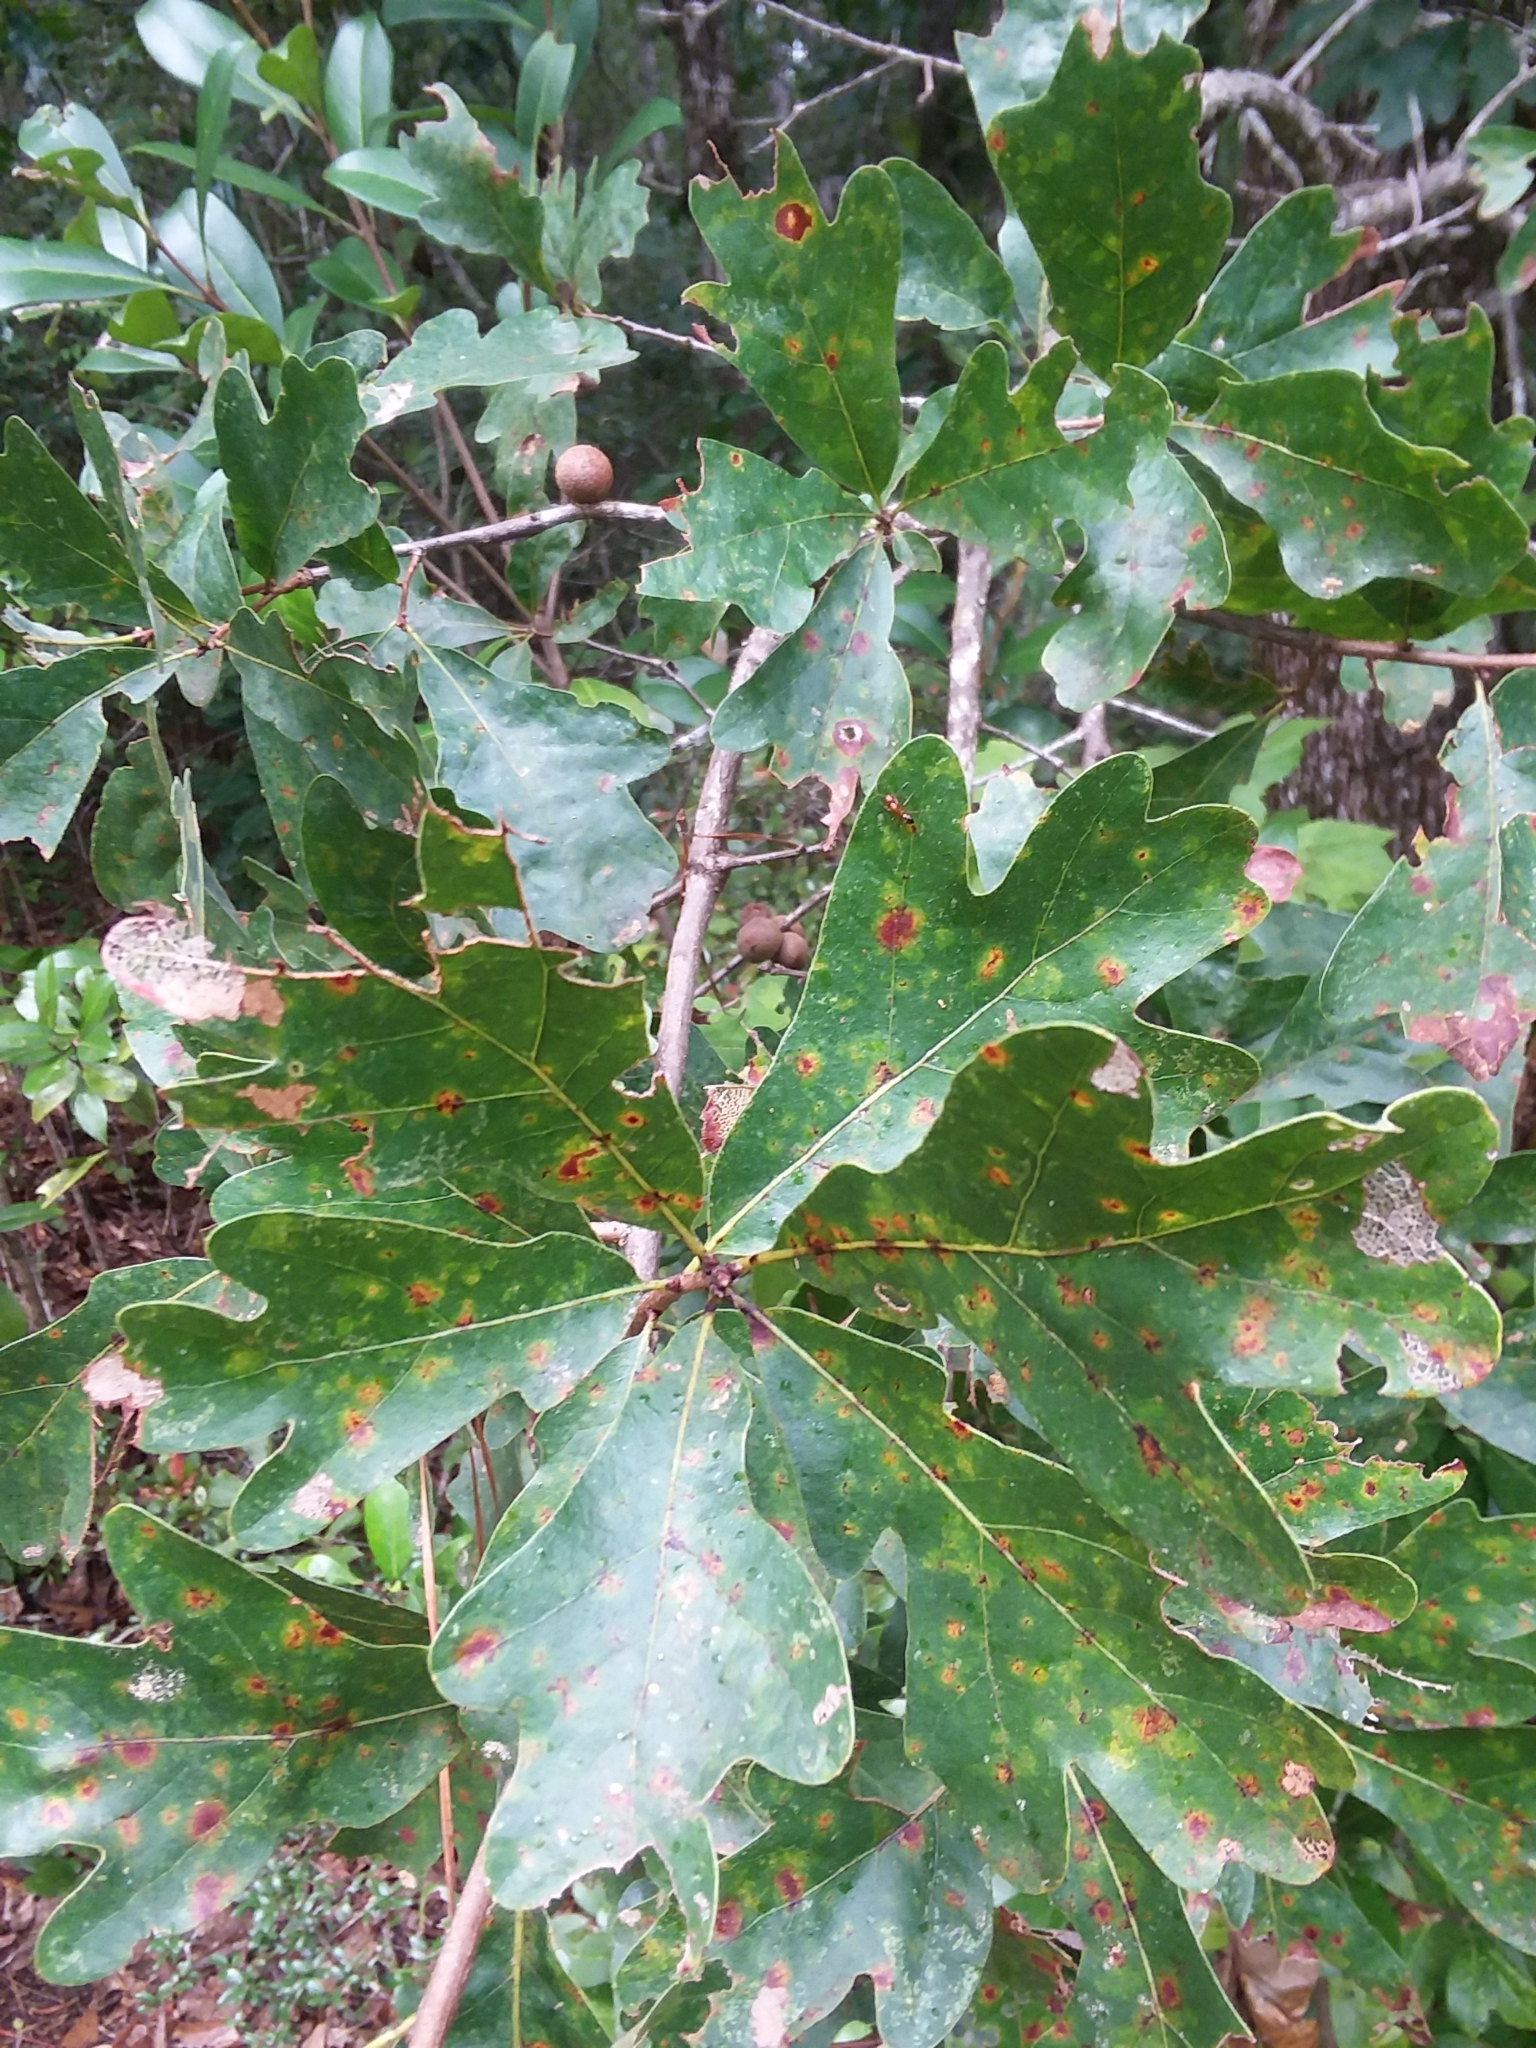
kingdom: Plantae
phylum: Tracheophyta
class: Magnoliopsida
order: Fagales
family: Fagaceae
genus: Quercus
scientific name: Quercus margaretiae
